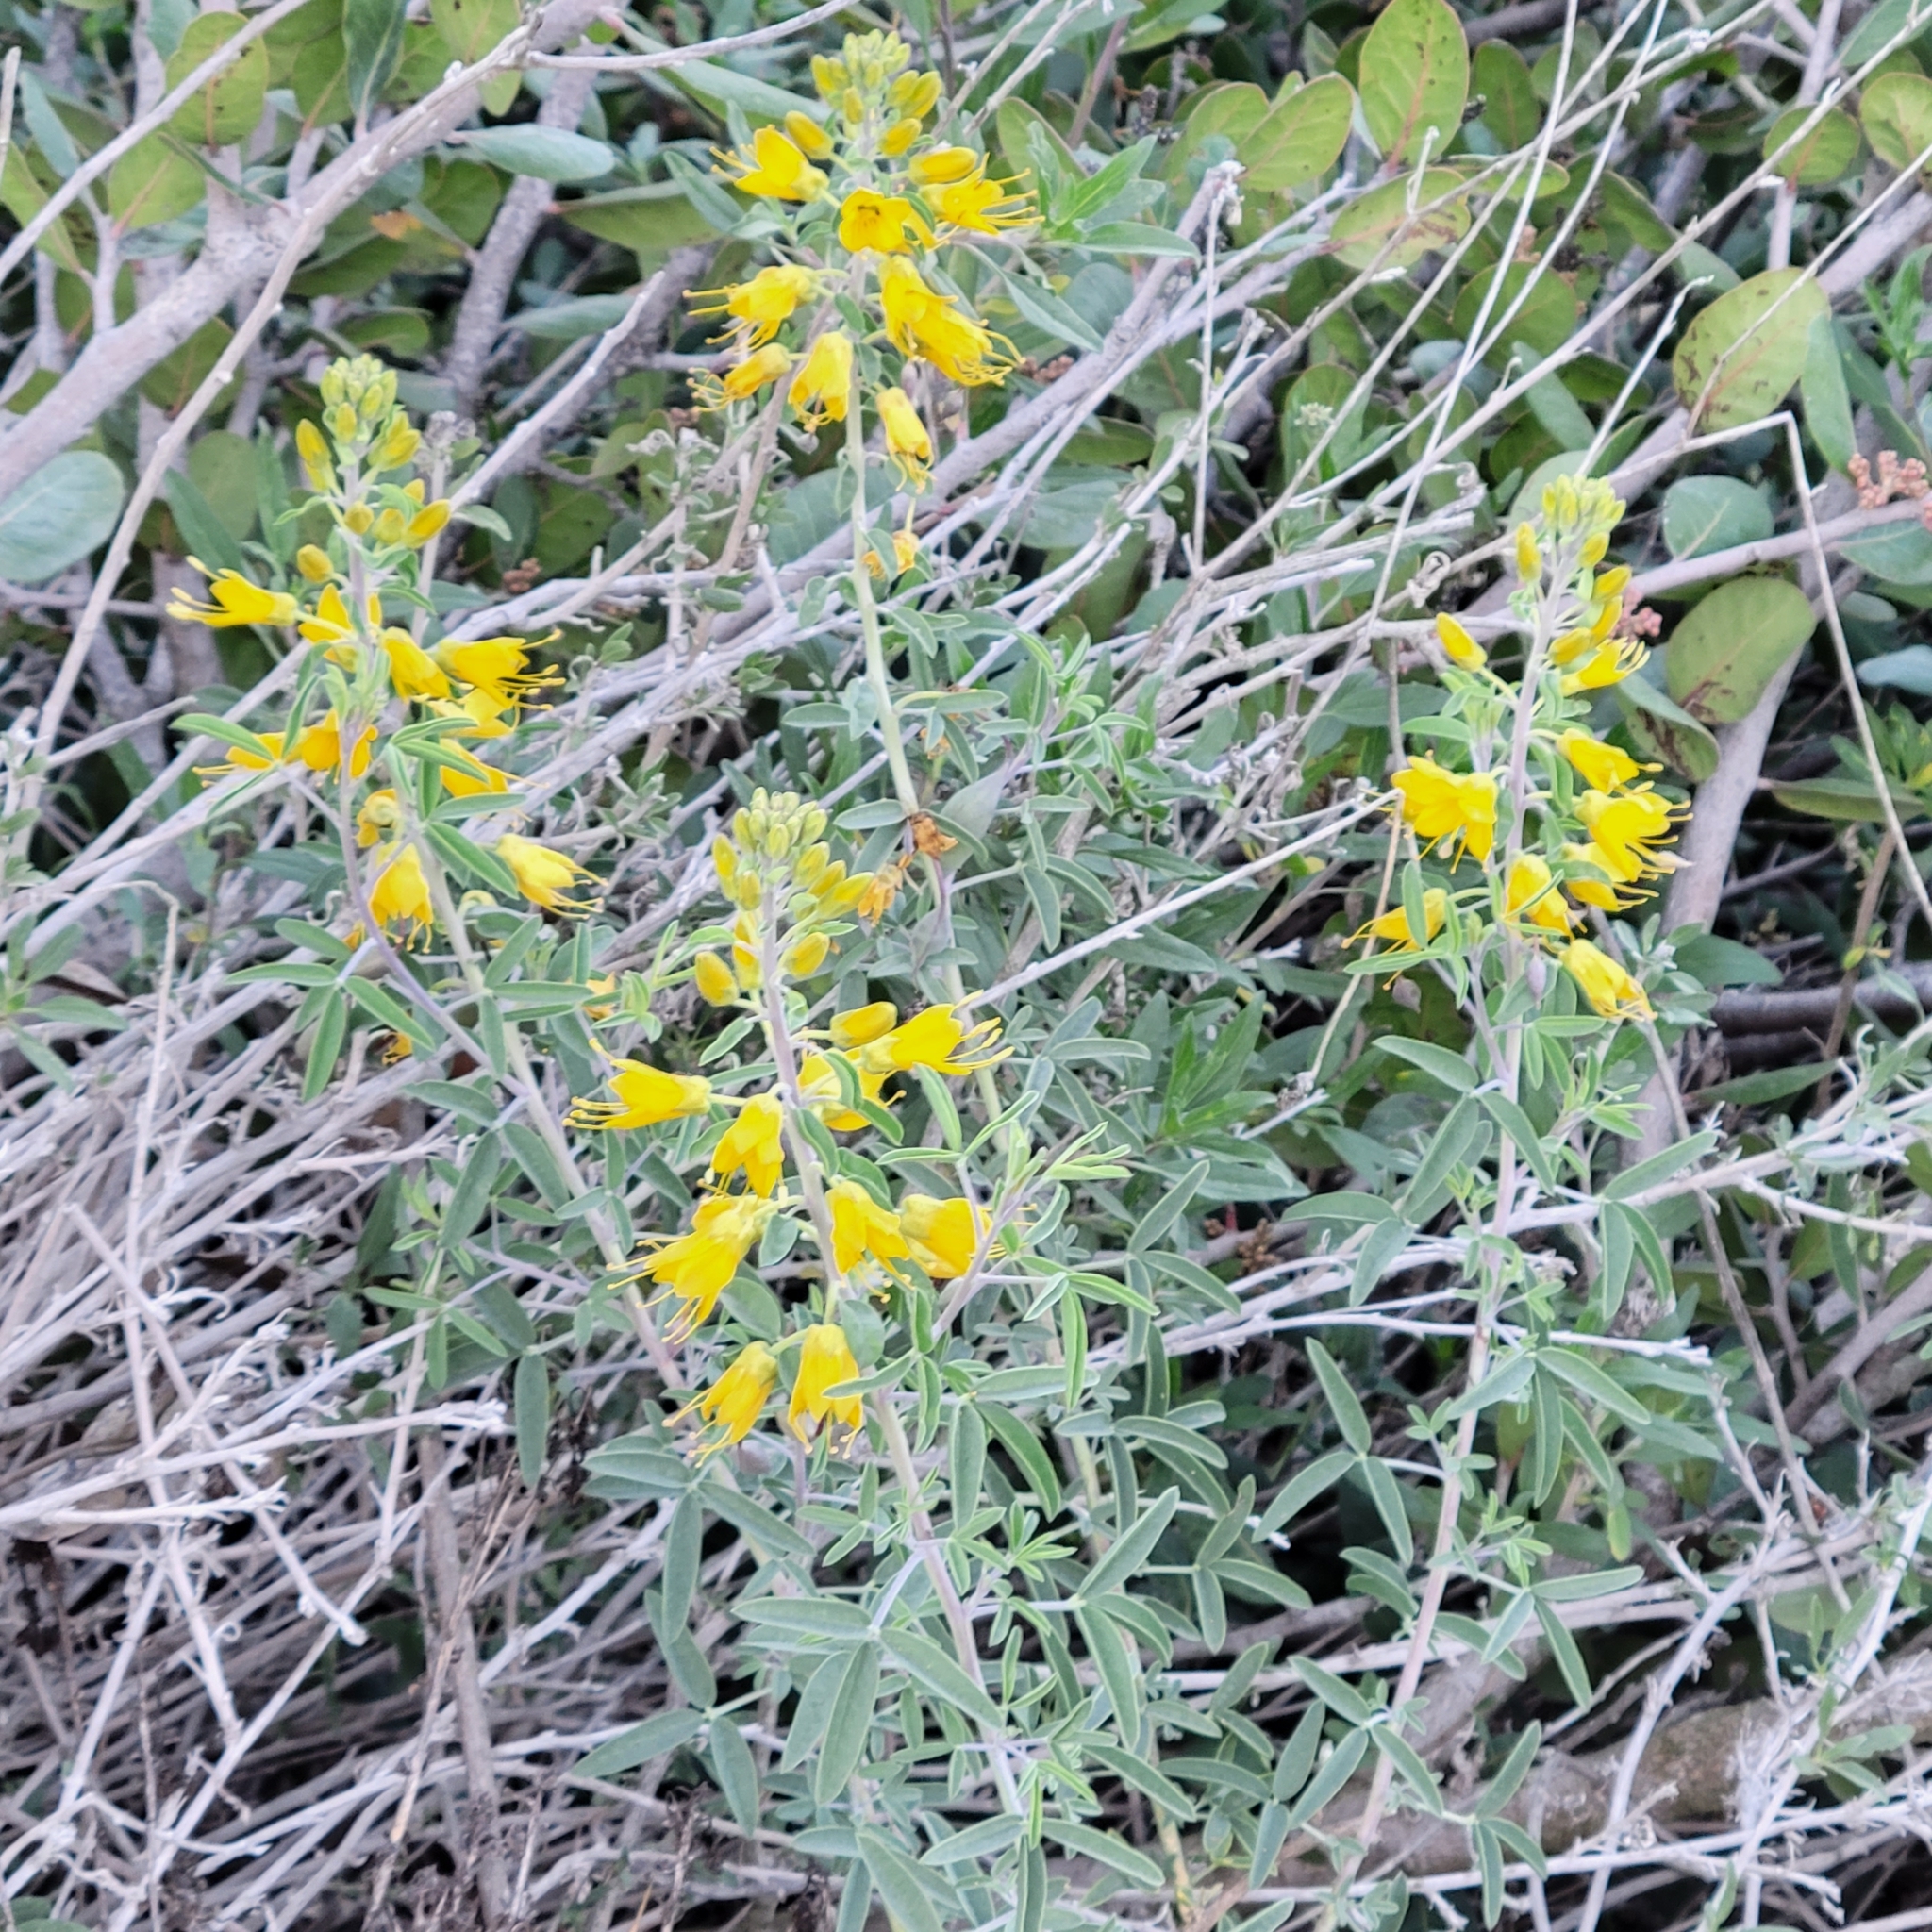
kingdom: Plantae
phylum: Tracheophyta
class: Magnoliopsida
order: Brassicales
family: Cleomaceae
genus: Cleomella
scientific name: Cleomella arborea
